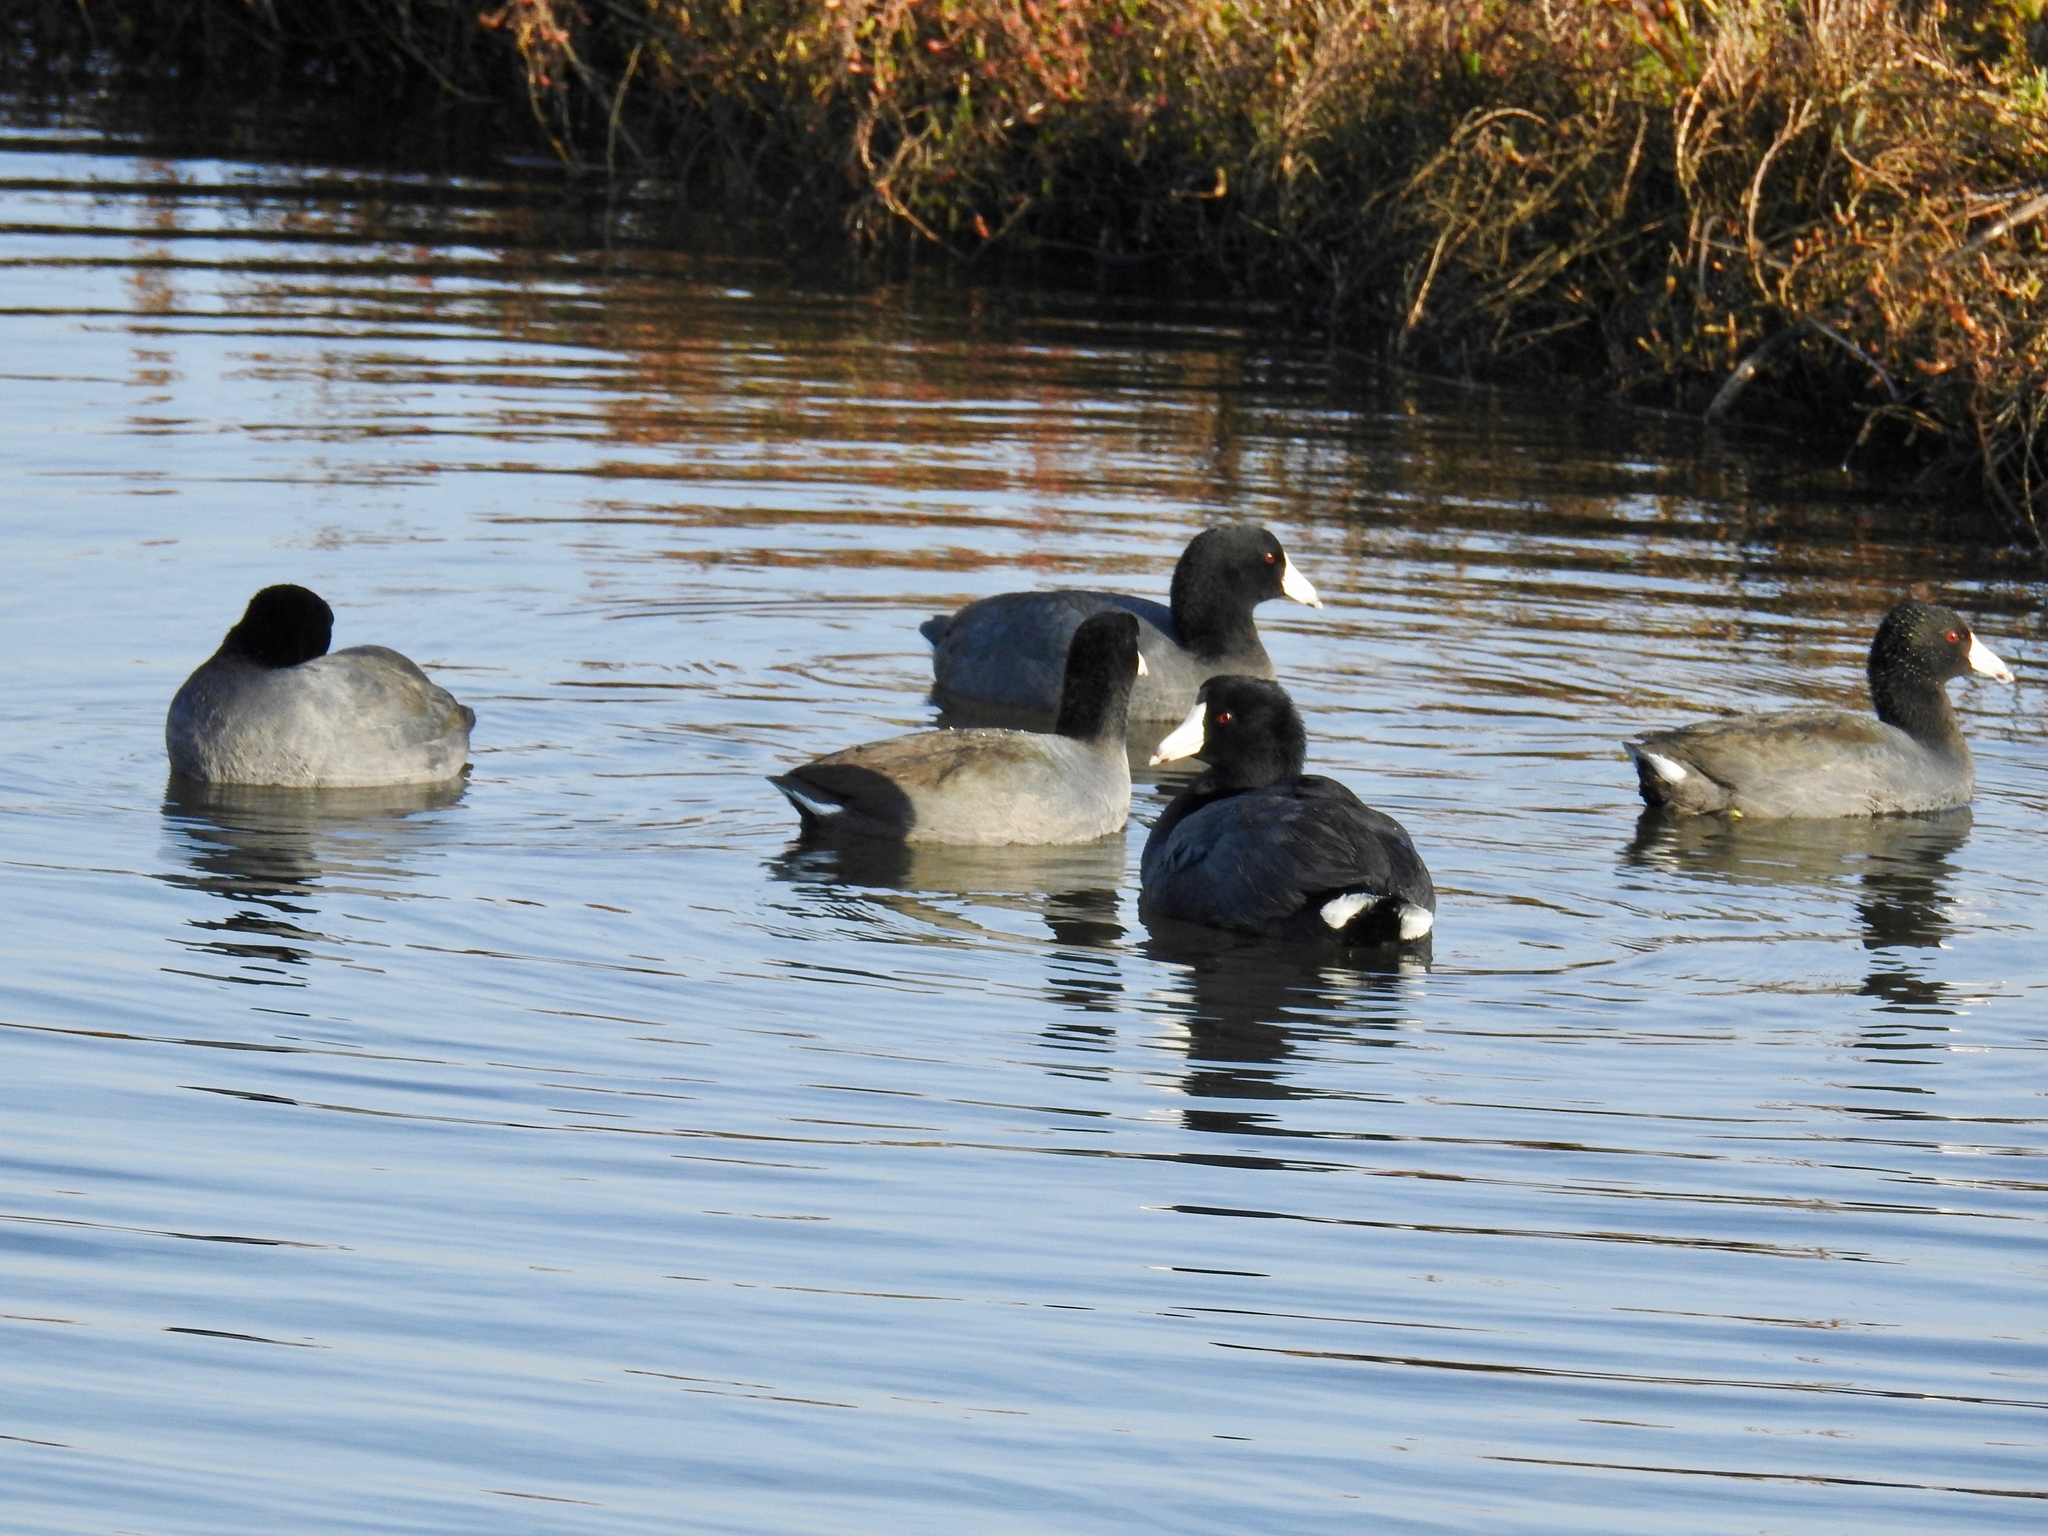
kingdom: Animalia
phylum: Chordata
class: Aves
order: Gruiformes
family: Rallidae
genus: Fulica
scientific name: Fulica americana
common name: American coot
